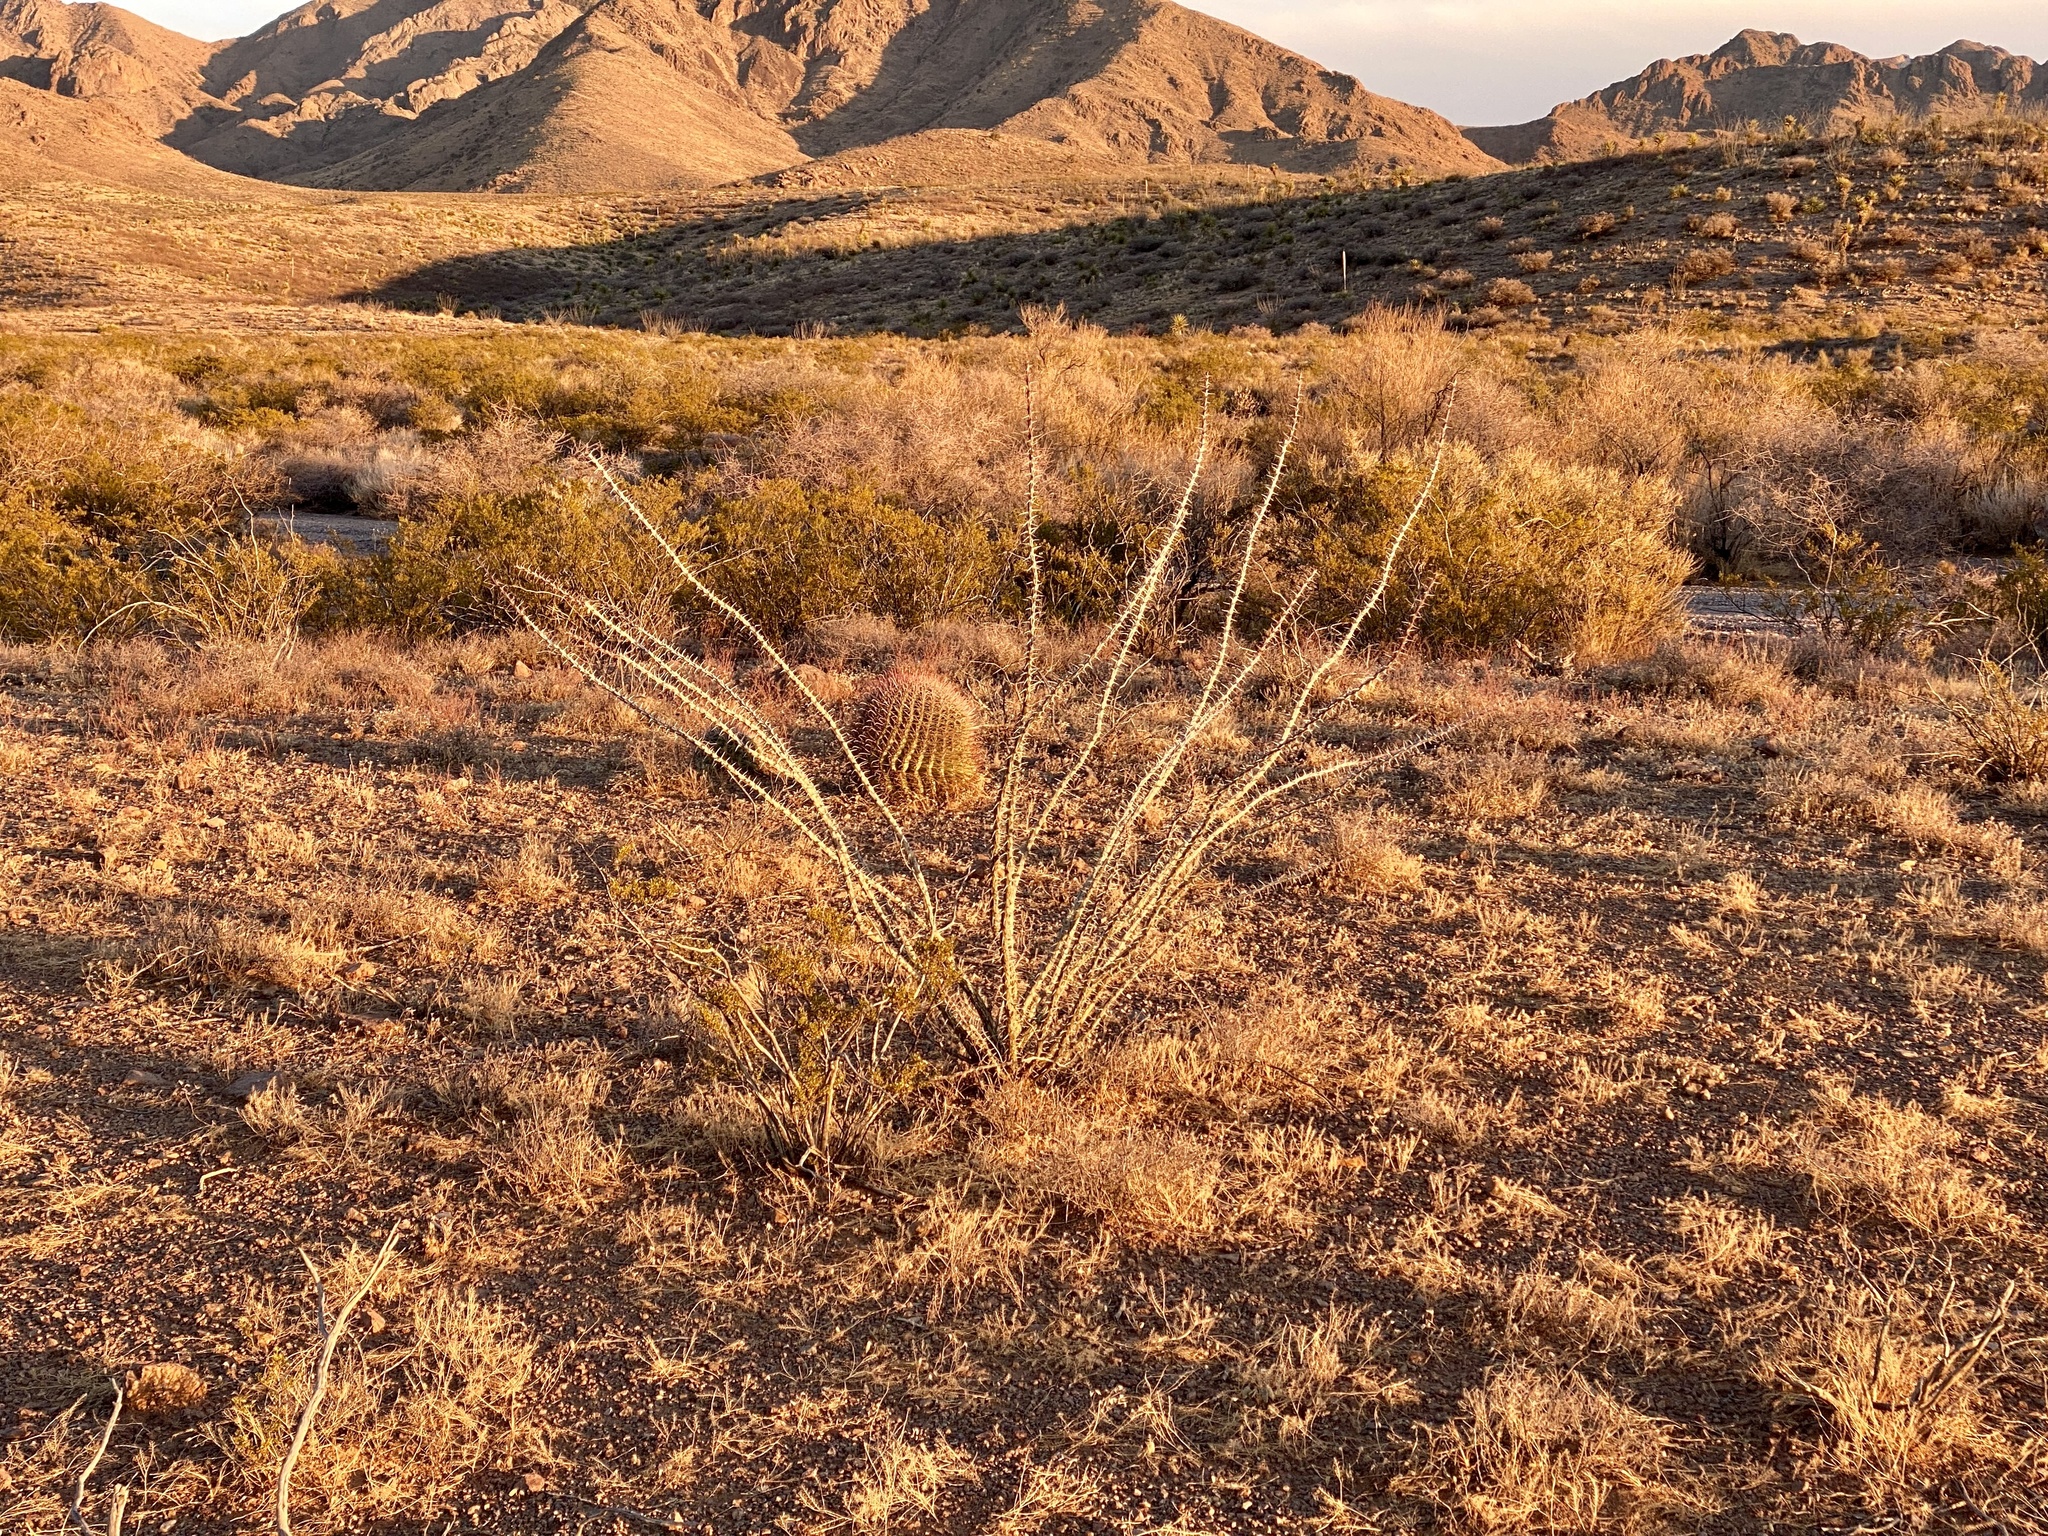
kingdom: Plantae
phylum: Tracheophyta
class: Magnoliopsida
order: Ericales
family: Fouquieriaceae
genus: Fouquieria
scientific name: Fouquieria splendens
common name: Vine-cactus
